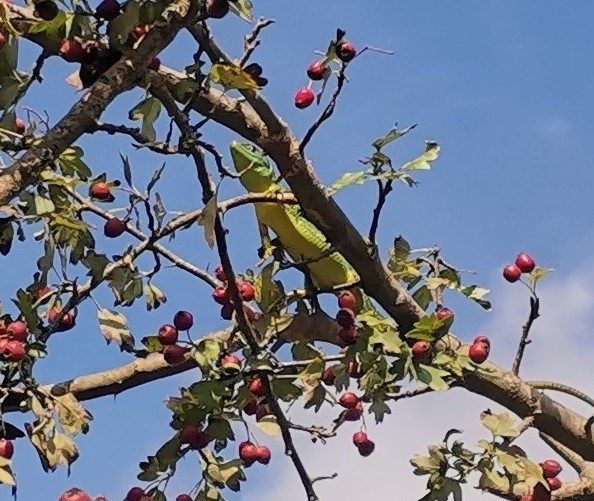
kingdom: Animalia
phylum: Chordata
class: Squamata
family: Lacertidae
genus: Lacerta
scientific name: Lacerta bilineata
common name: Western green lizard
